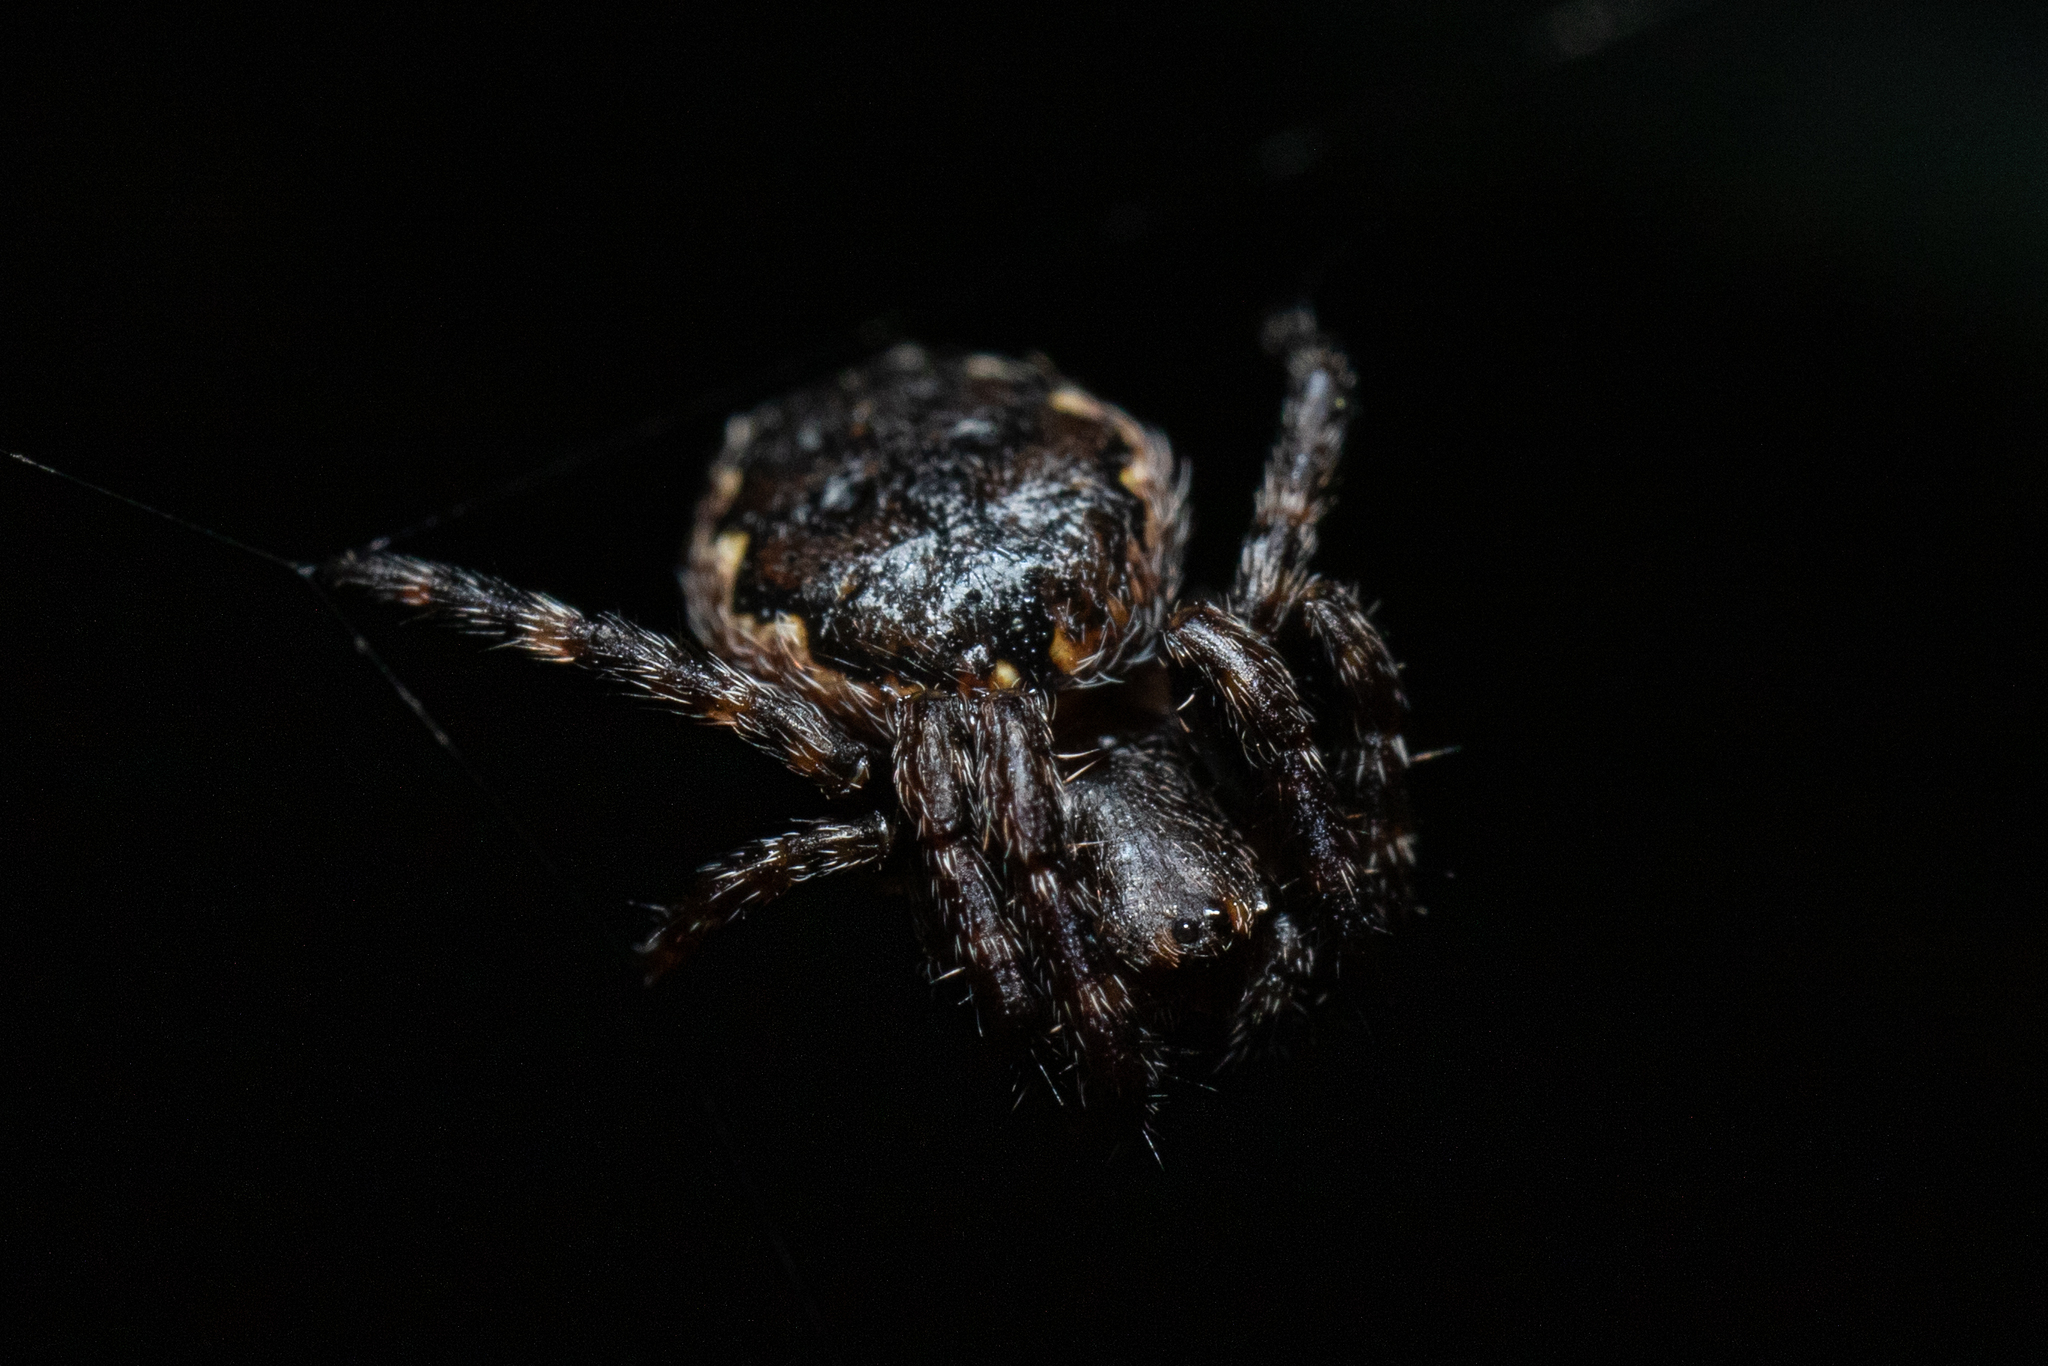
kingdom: Animalia
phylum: Arthropoda
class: Arachnida
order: Araneae
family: Araneidae
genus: Nuctenea
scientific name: Nuctenea umbratica
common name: Toad spider
